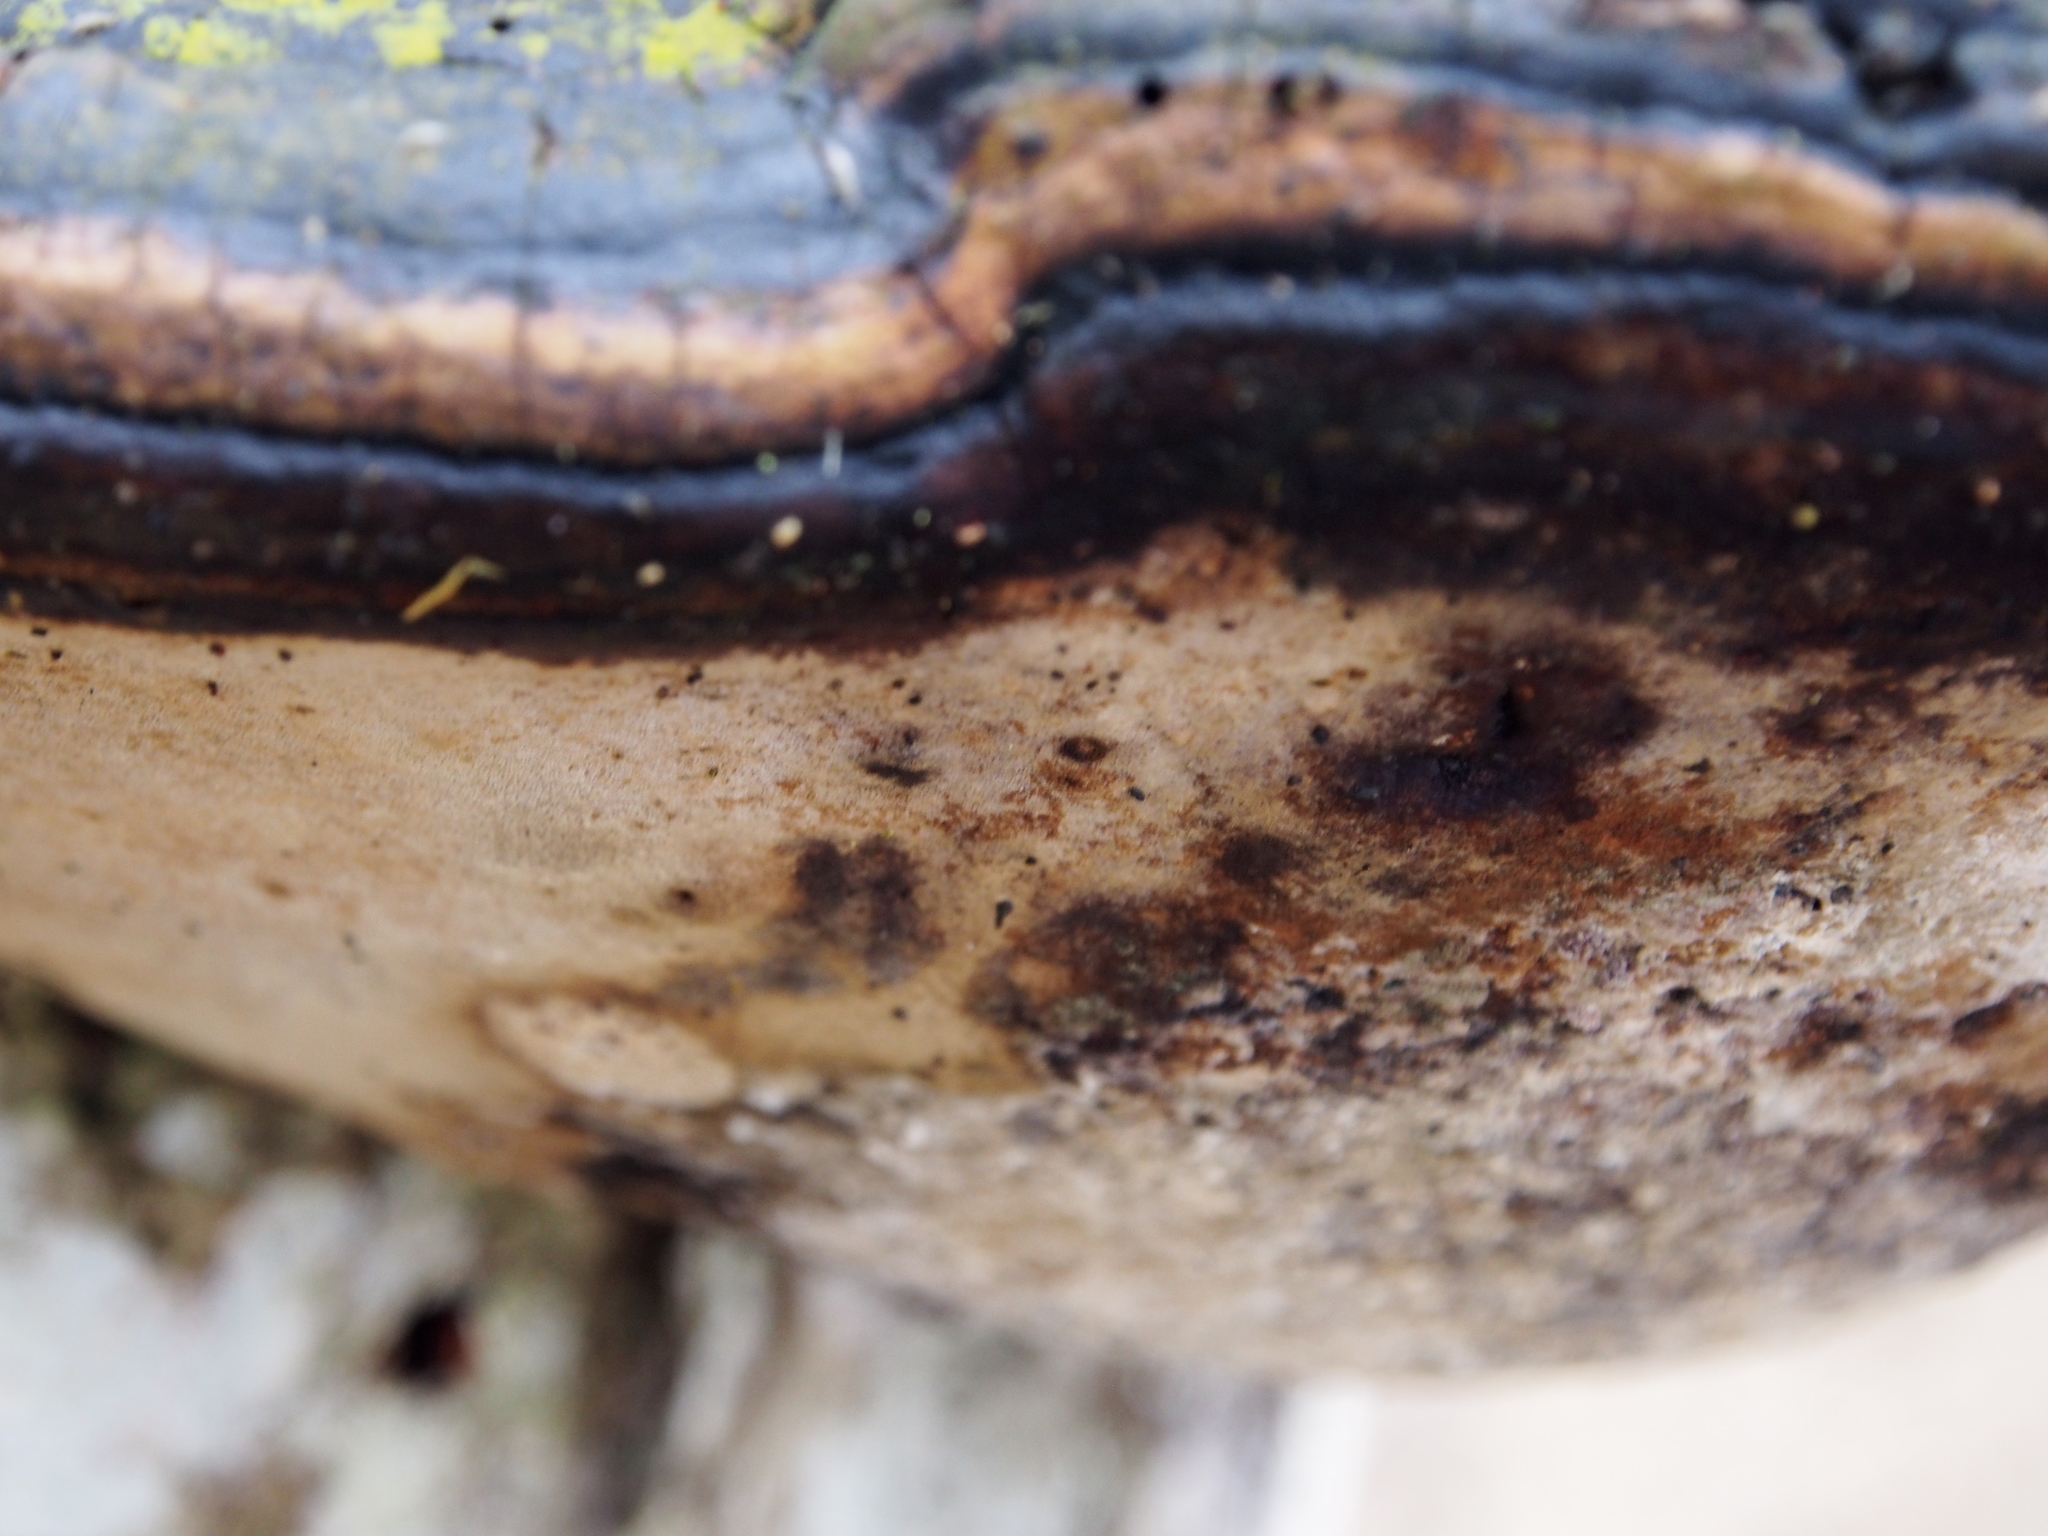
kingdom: Fungi
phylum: Basidiomycota
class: Agaricomycetes
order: Hymenochaetales
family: Hymenochaetaceae
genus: Phellinus
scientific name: Phellinus igniarius
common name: Willow bracket
